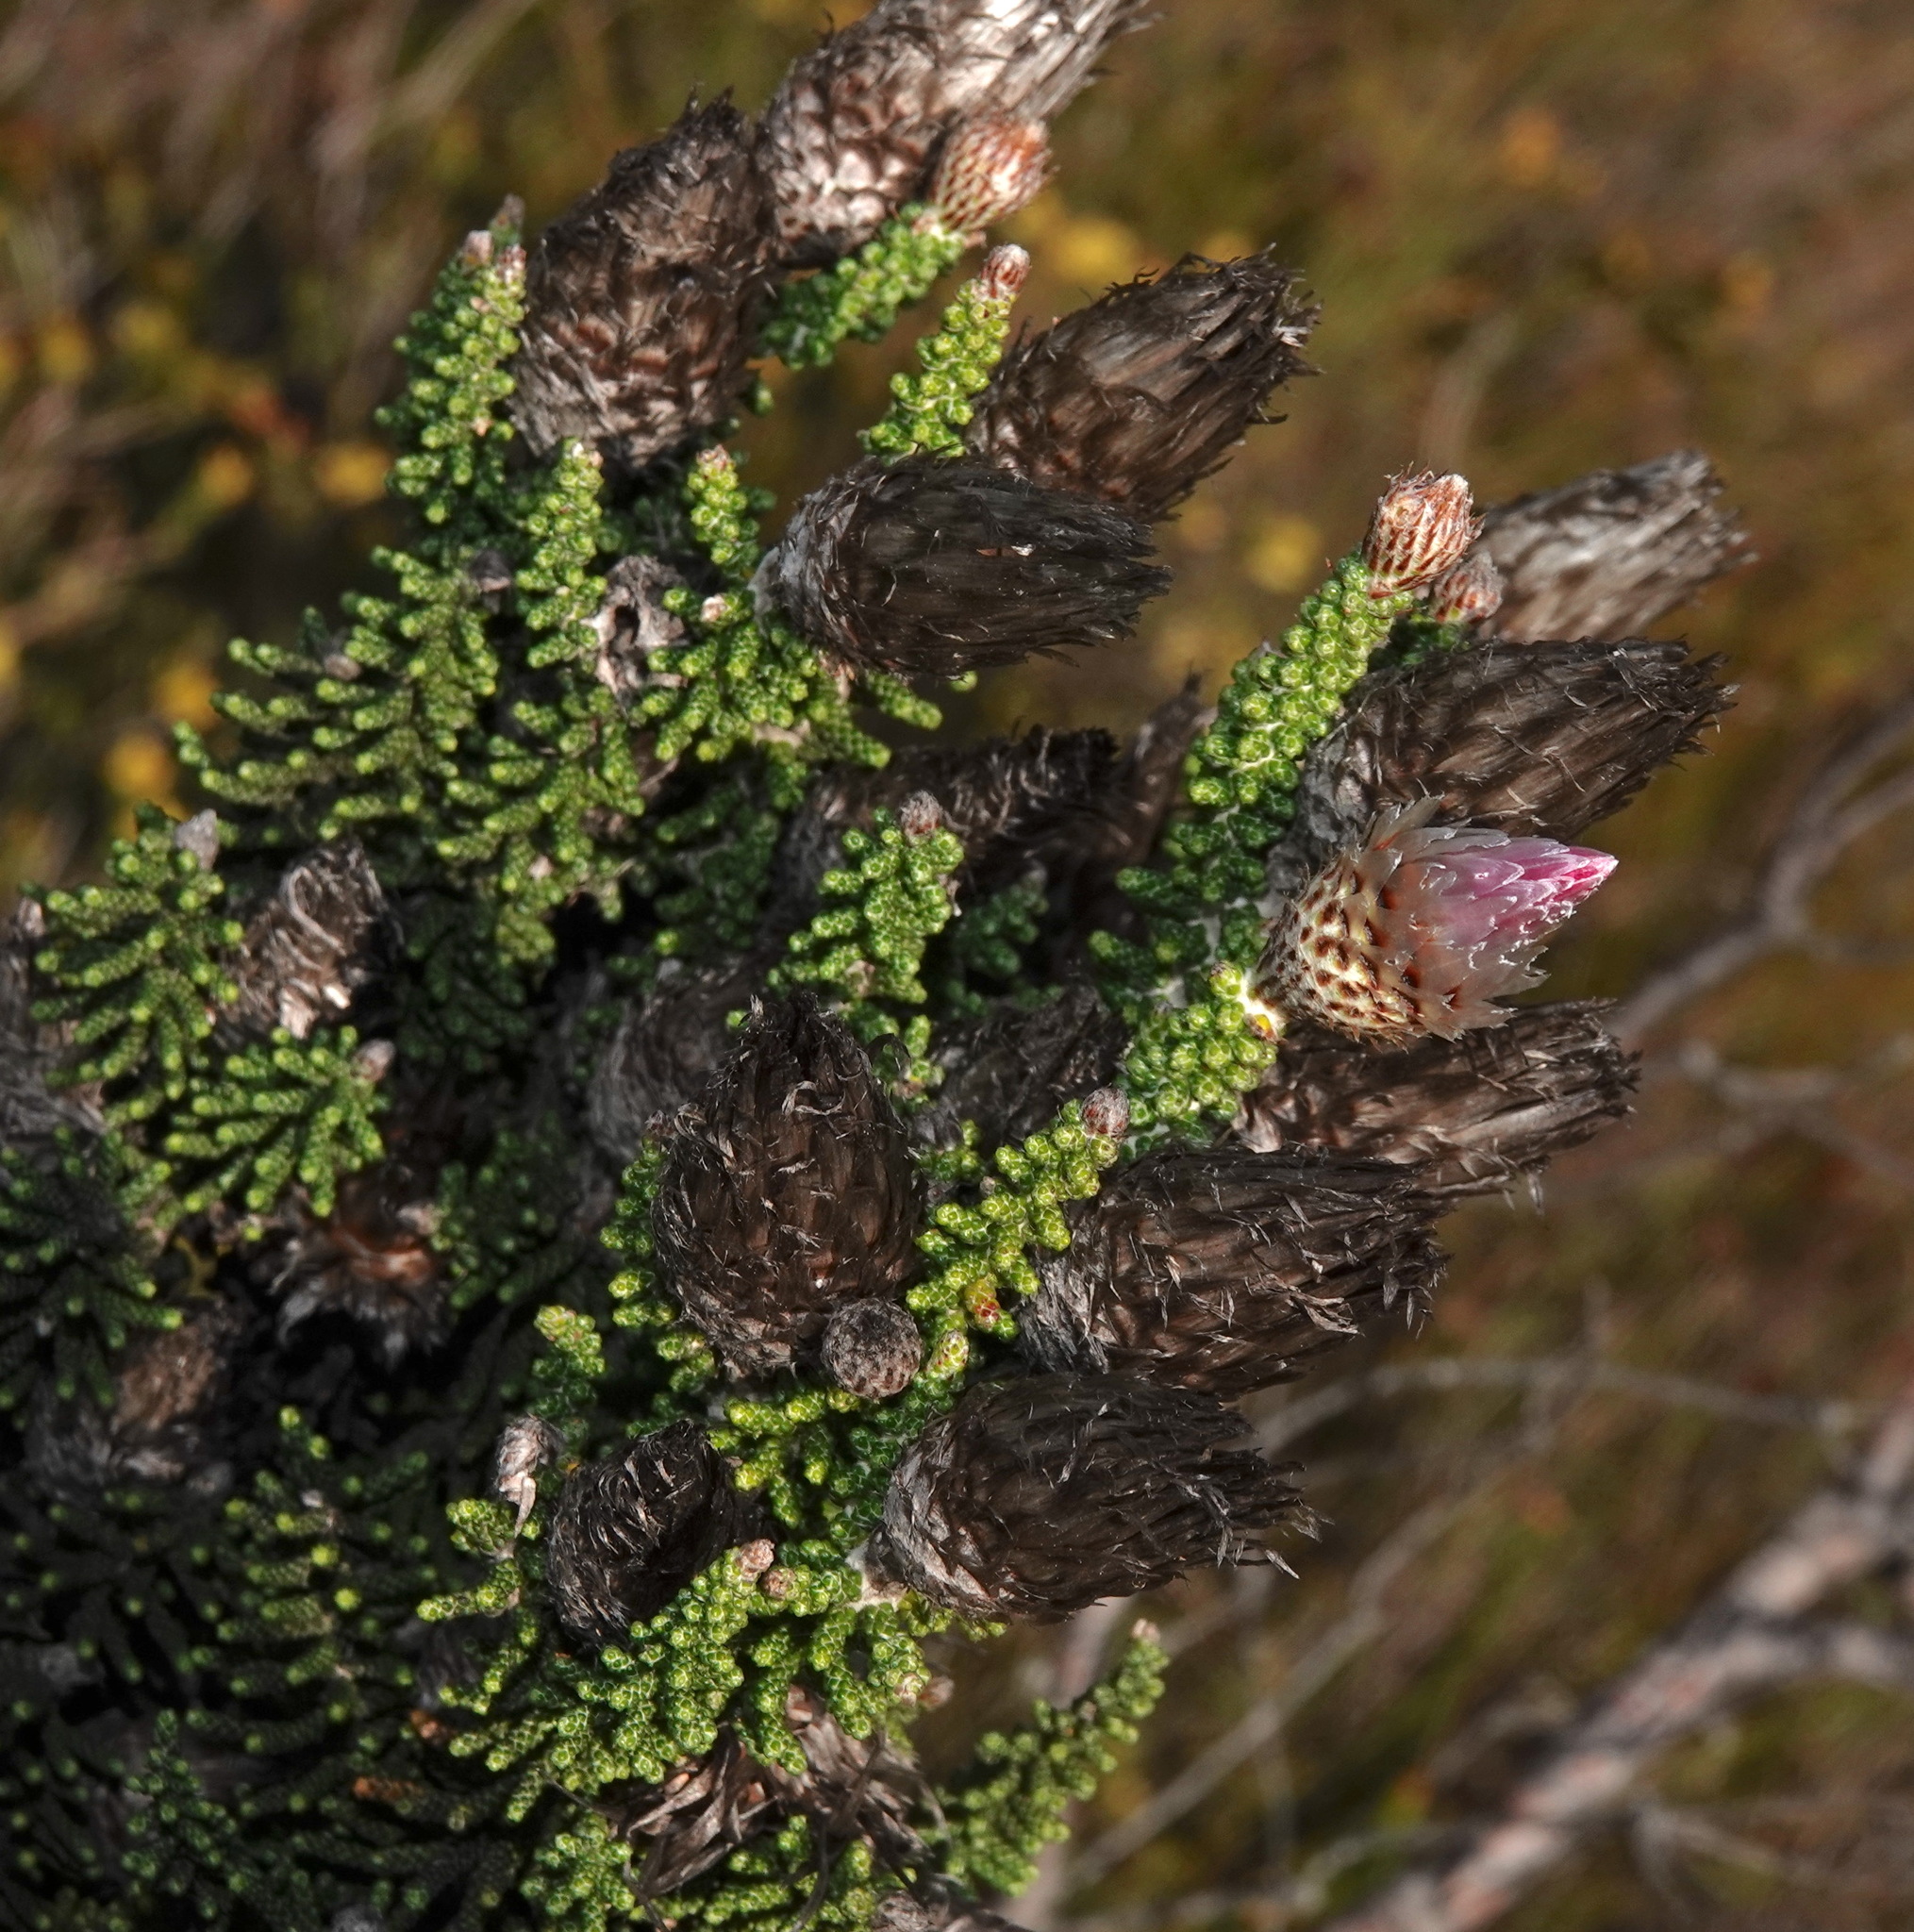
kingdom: Plantae
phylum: Tracheophyta
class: Magnoliopsida
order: Asterales
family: Asteraceae
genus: Phaenocoma
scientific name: Phaenocoma prolifera
